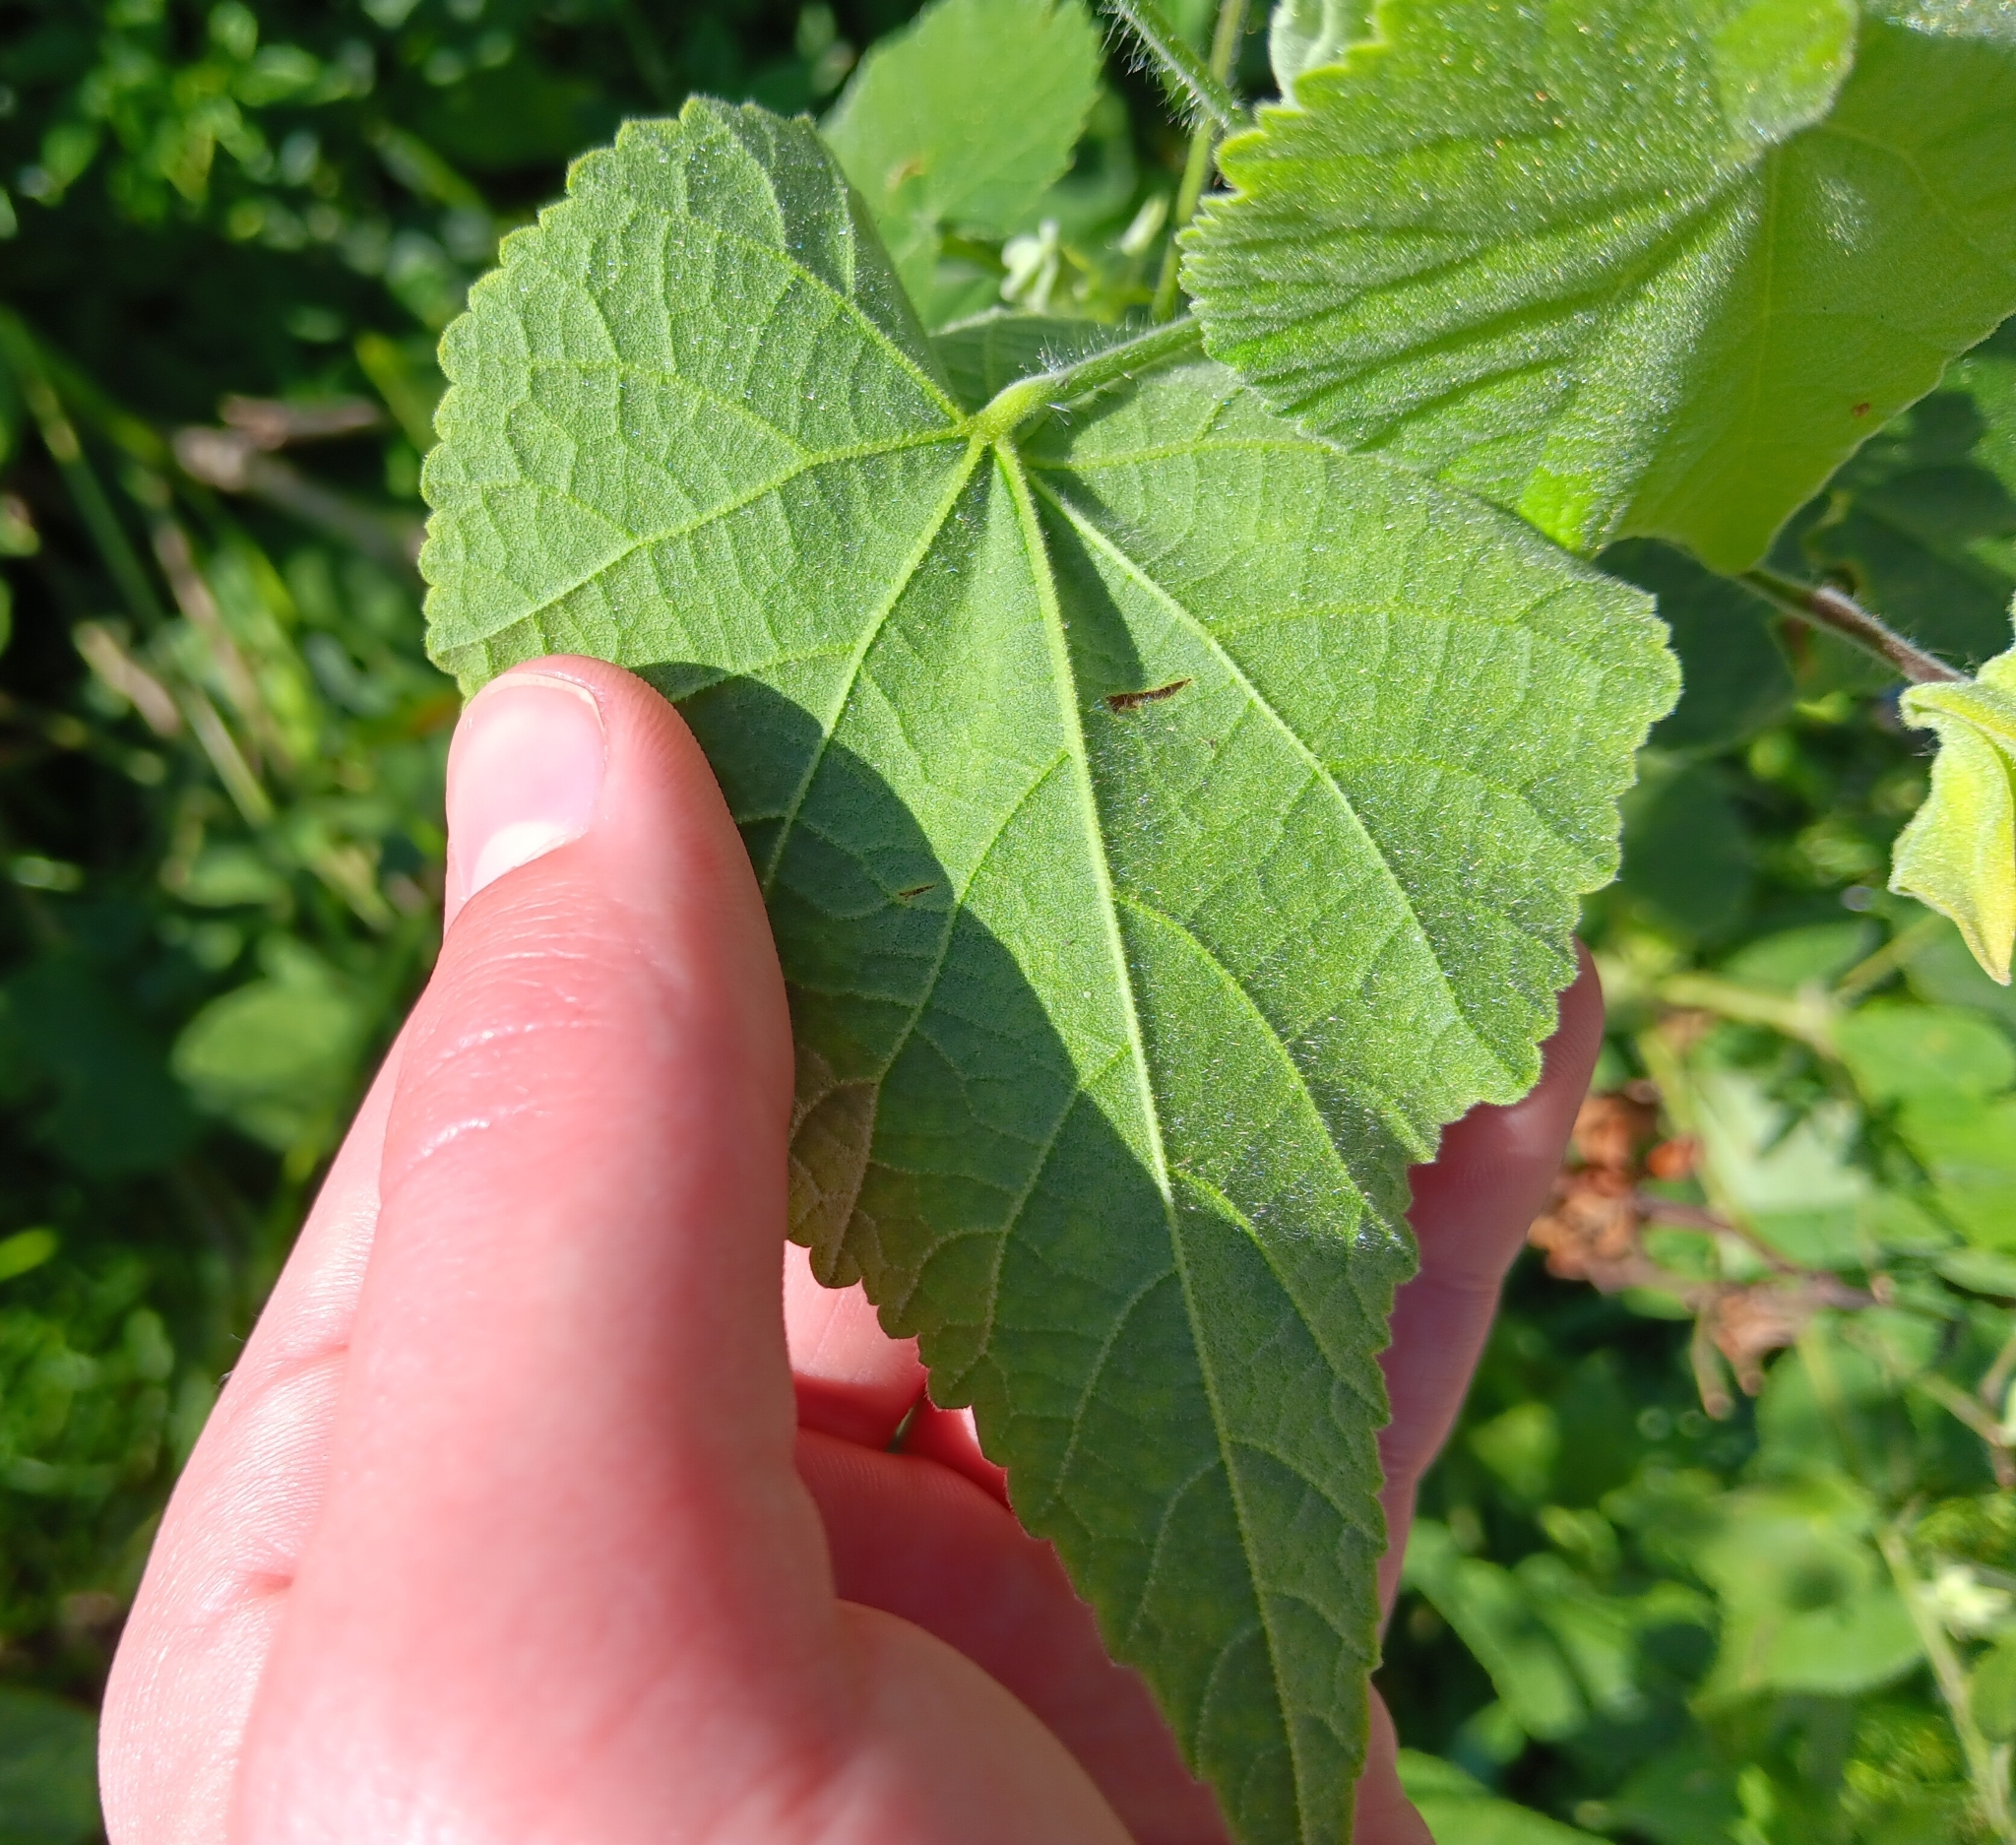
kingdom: Plantae
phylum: Tracheophyta
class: Magnoliopsida
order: Malvales
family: Malvaceae
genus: Abutilon
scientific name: Abutilon grandifolium
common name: Hairy abutilon
